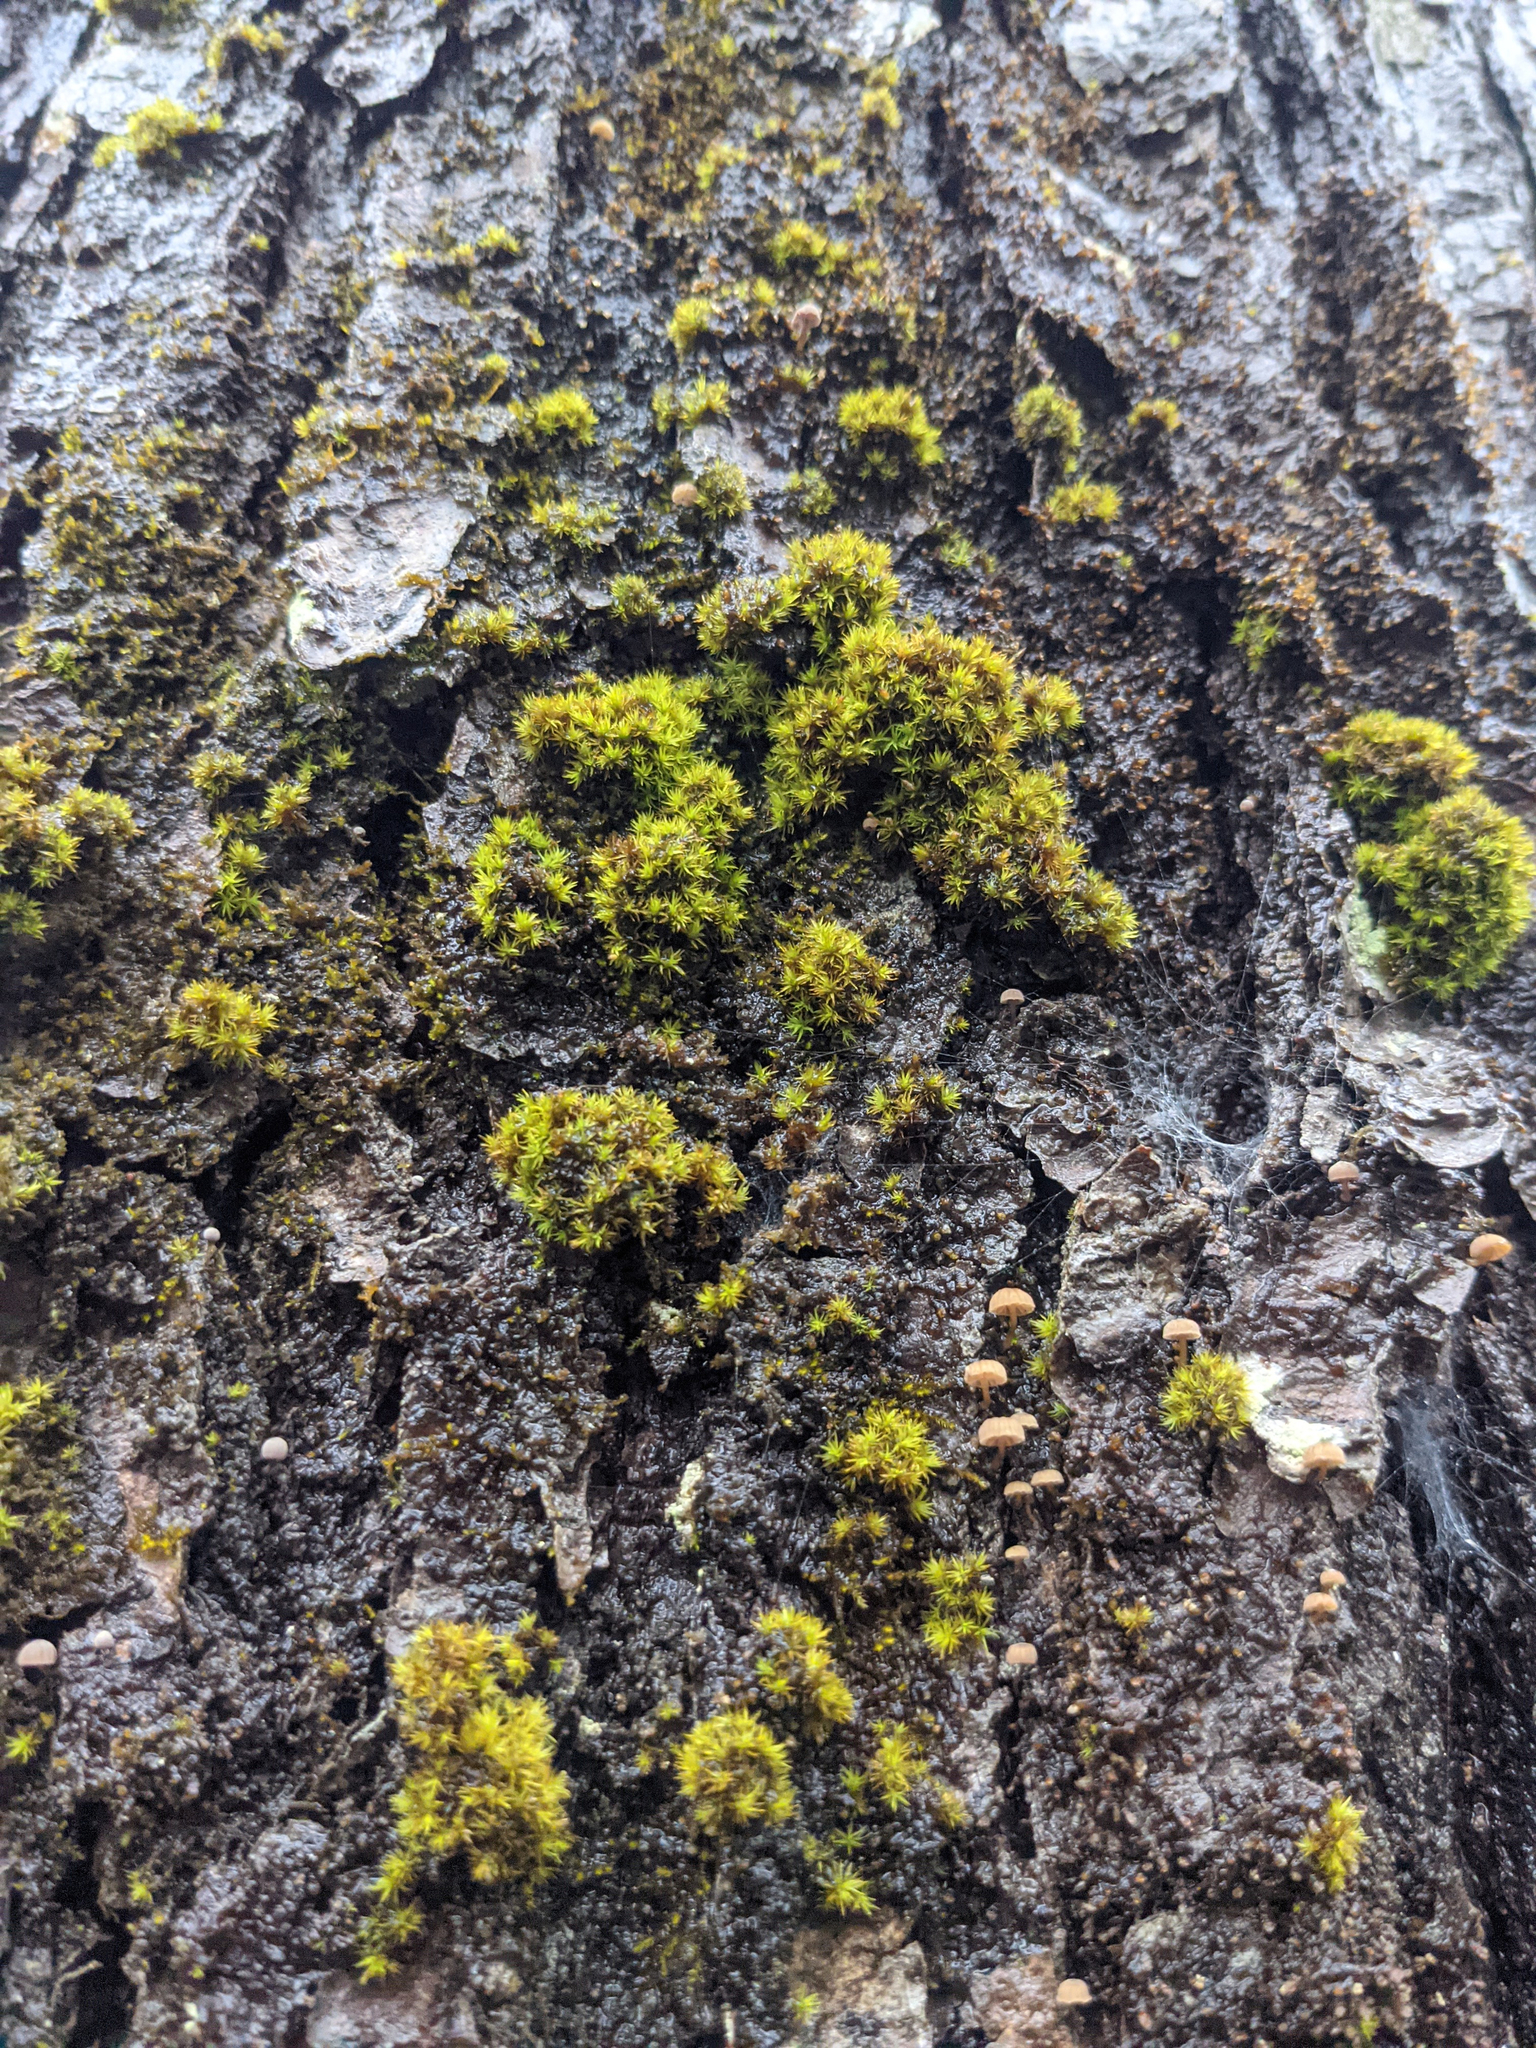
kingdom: Plantae
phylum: Bryophyta
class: Bryopsida
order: Orthotrichales
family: Orthotrichaceae
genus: Ulota
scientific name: Ulota crispa
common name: Crisped pincushion moss
